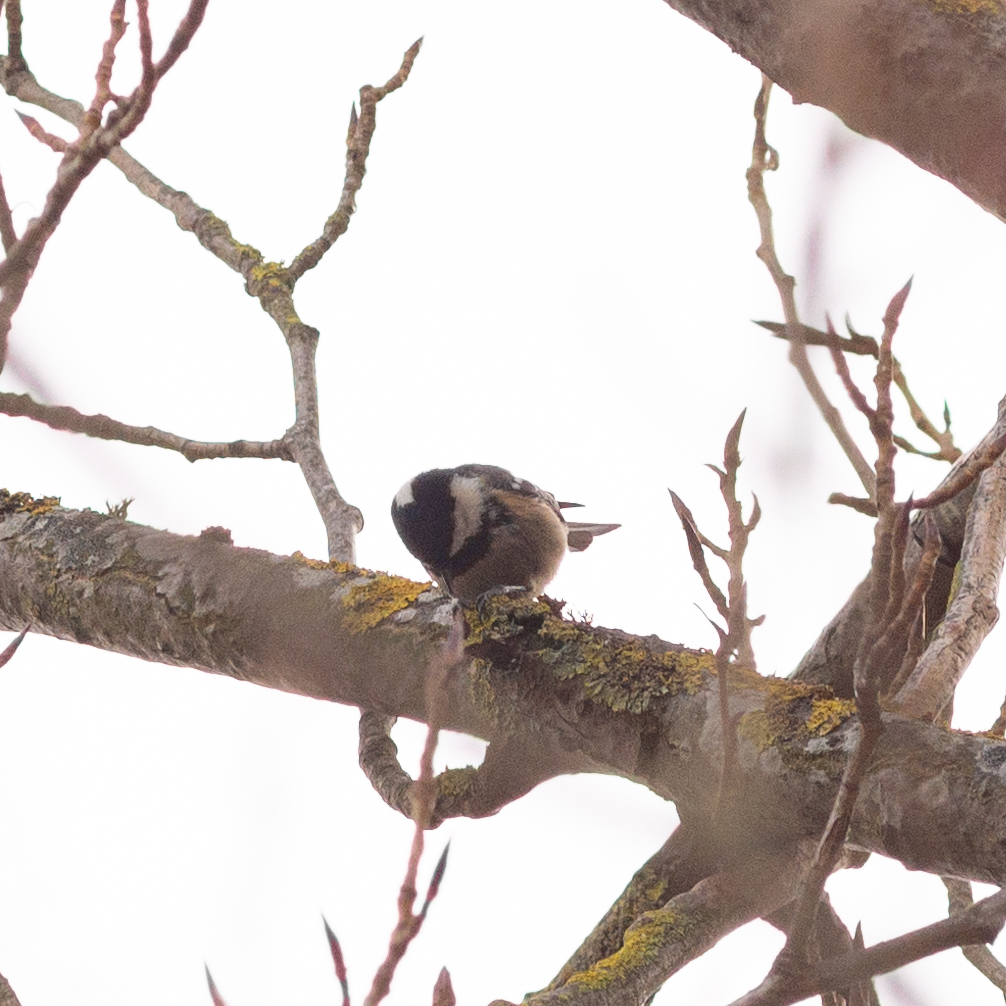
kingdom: Animalia
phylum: Chordata
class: Aves
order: Passeriformes
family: Paridae
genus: Periparus
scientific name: Periparus ater
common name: Coal tit
